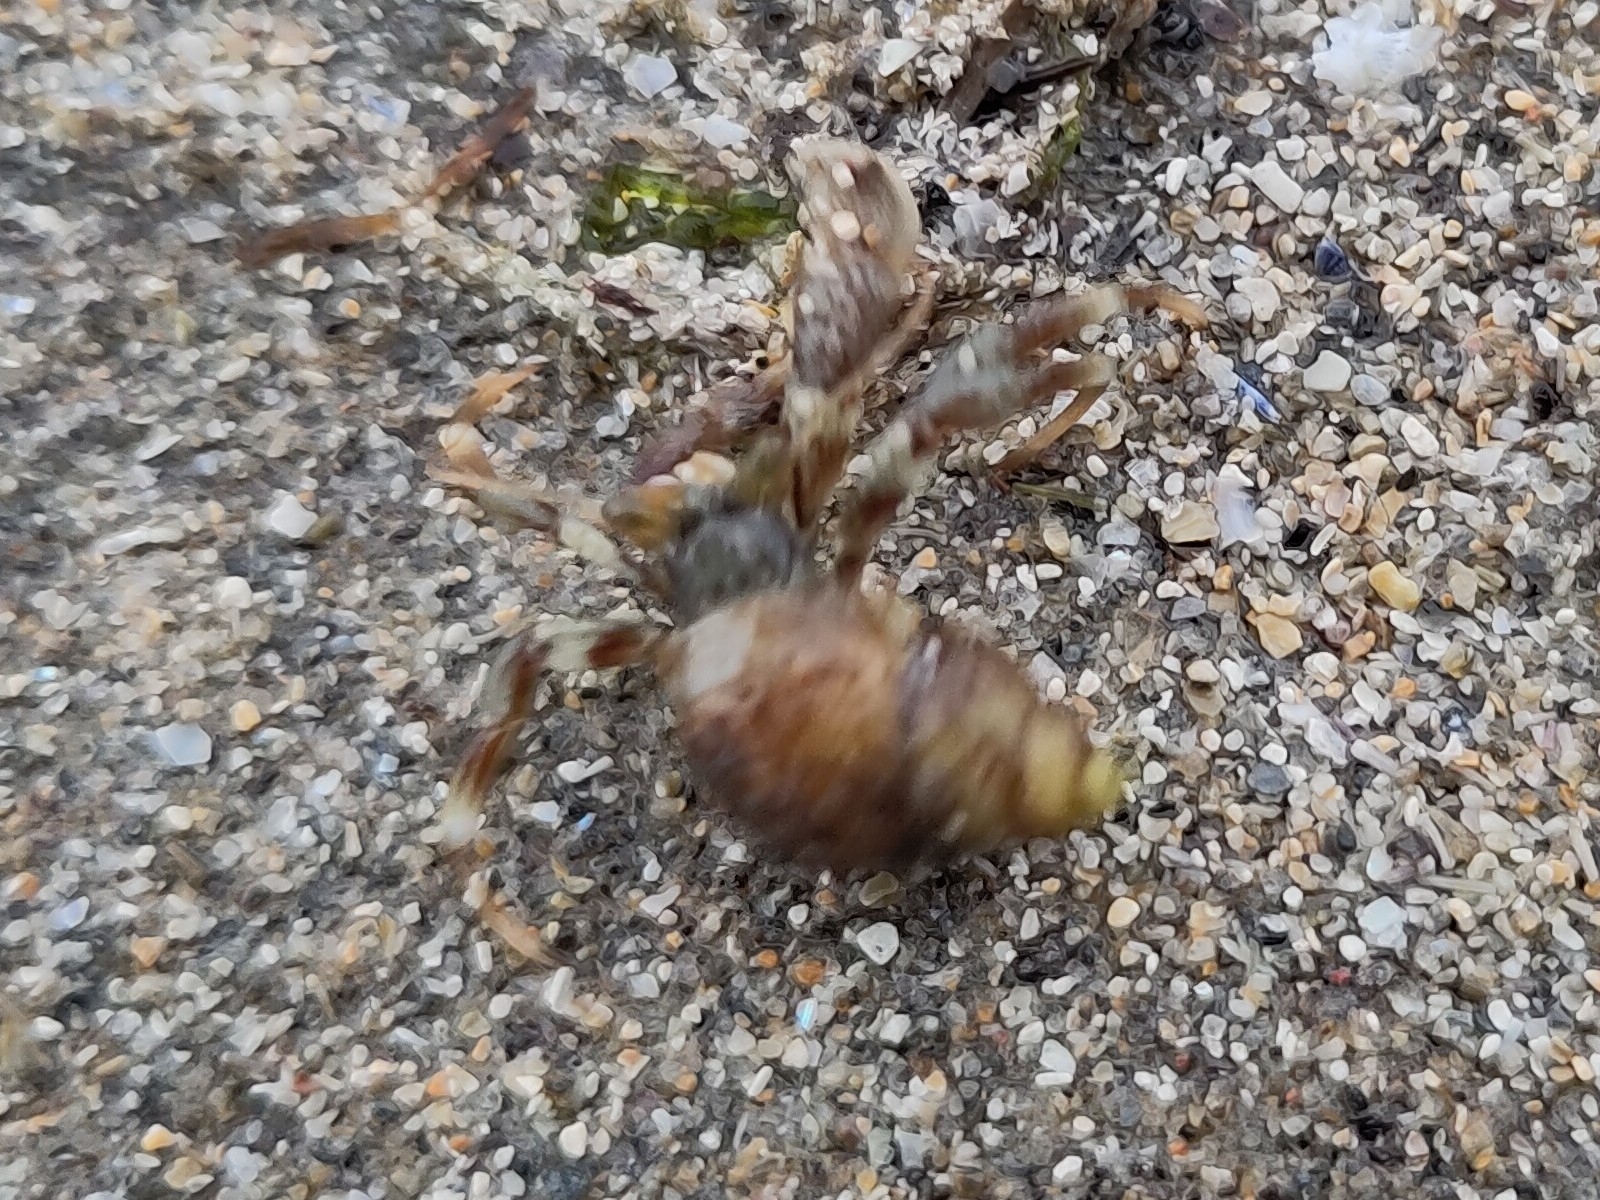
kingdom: Animalia
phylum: Arthropoda
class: Malacostraca
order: Decapoda
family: Paguridae
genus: Pagurus
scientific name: Pagurus bernhardus
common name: Hermit crab
